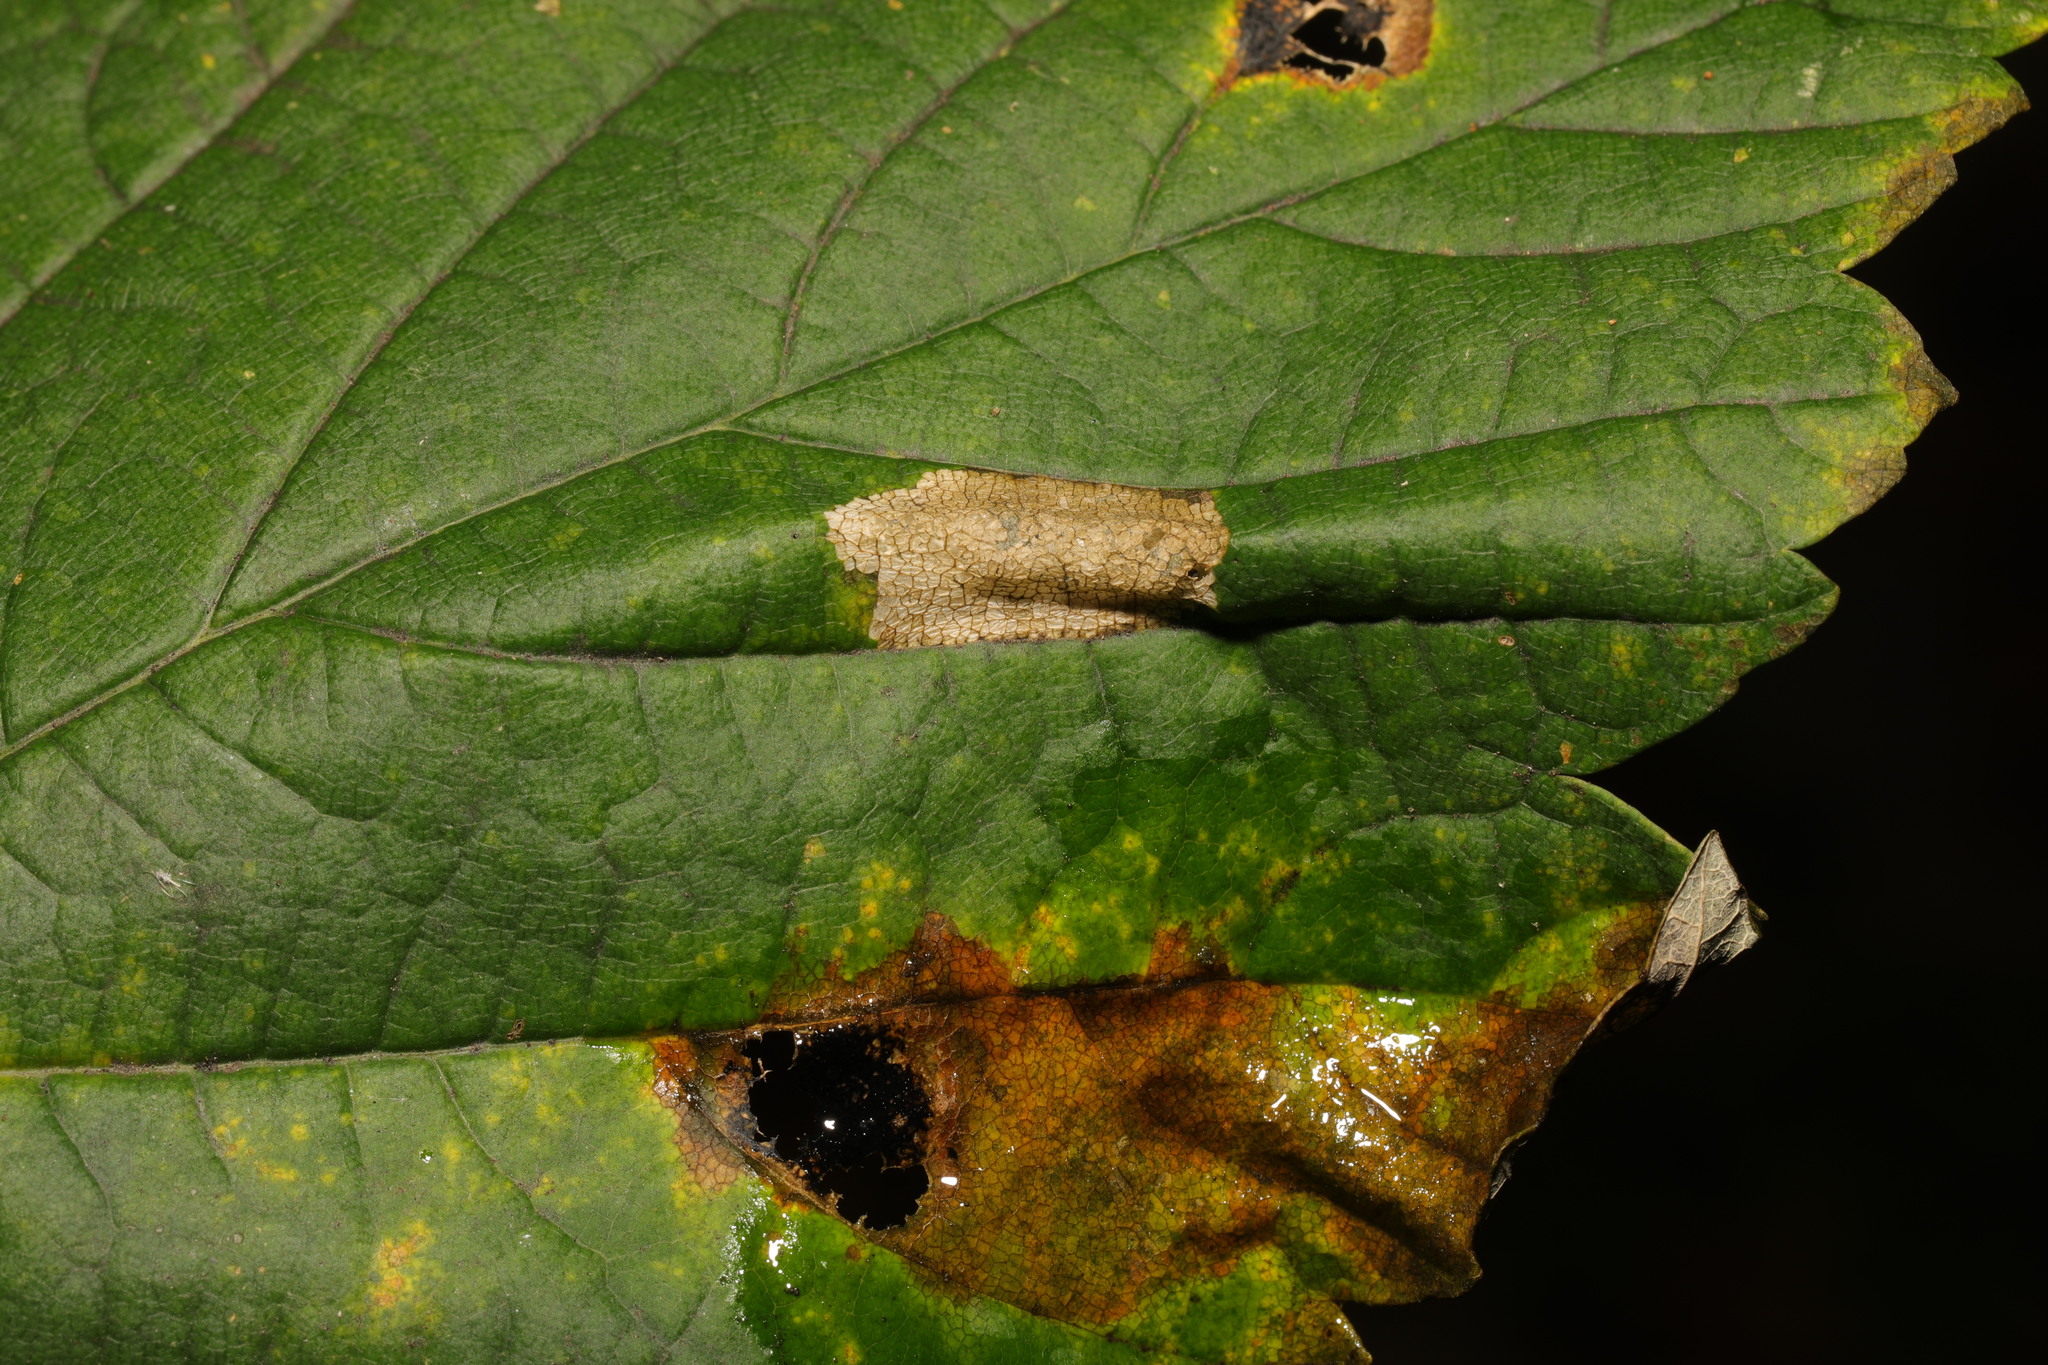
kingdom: Animalia
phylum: Arthropoda
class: Insecta
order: Lepidoptera
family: Gracillariidae
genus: Phyllonorycter
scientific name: Phyllonorycter geniculella
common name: Sycamore midget
